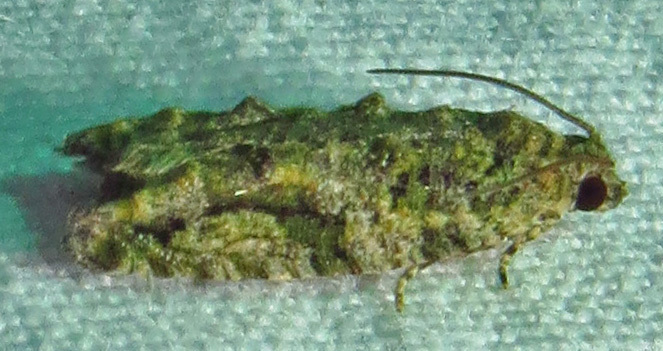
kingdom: Animalia
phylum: Arthropoda
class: Insecta
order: Lepidoptera
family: Tortricidae
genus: Proteoteras
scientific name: Proteoteras aesculana
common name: Maple twig borer moth
